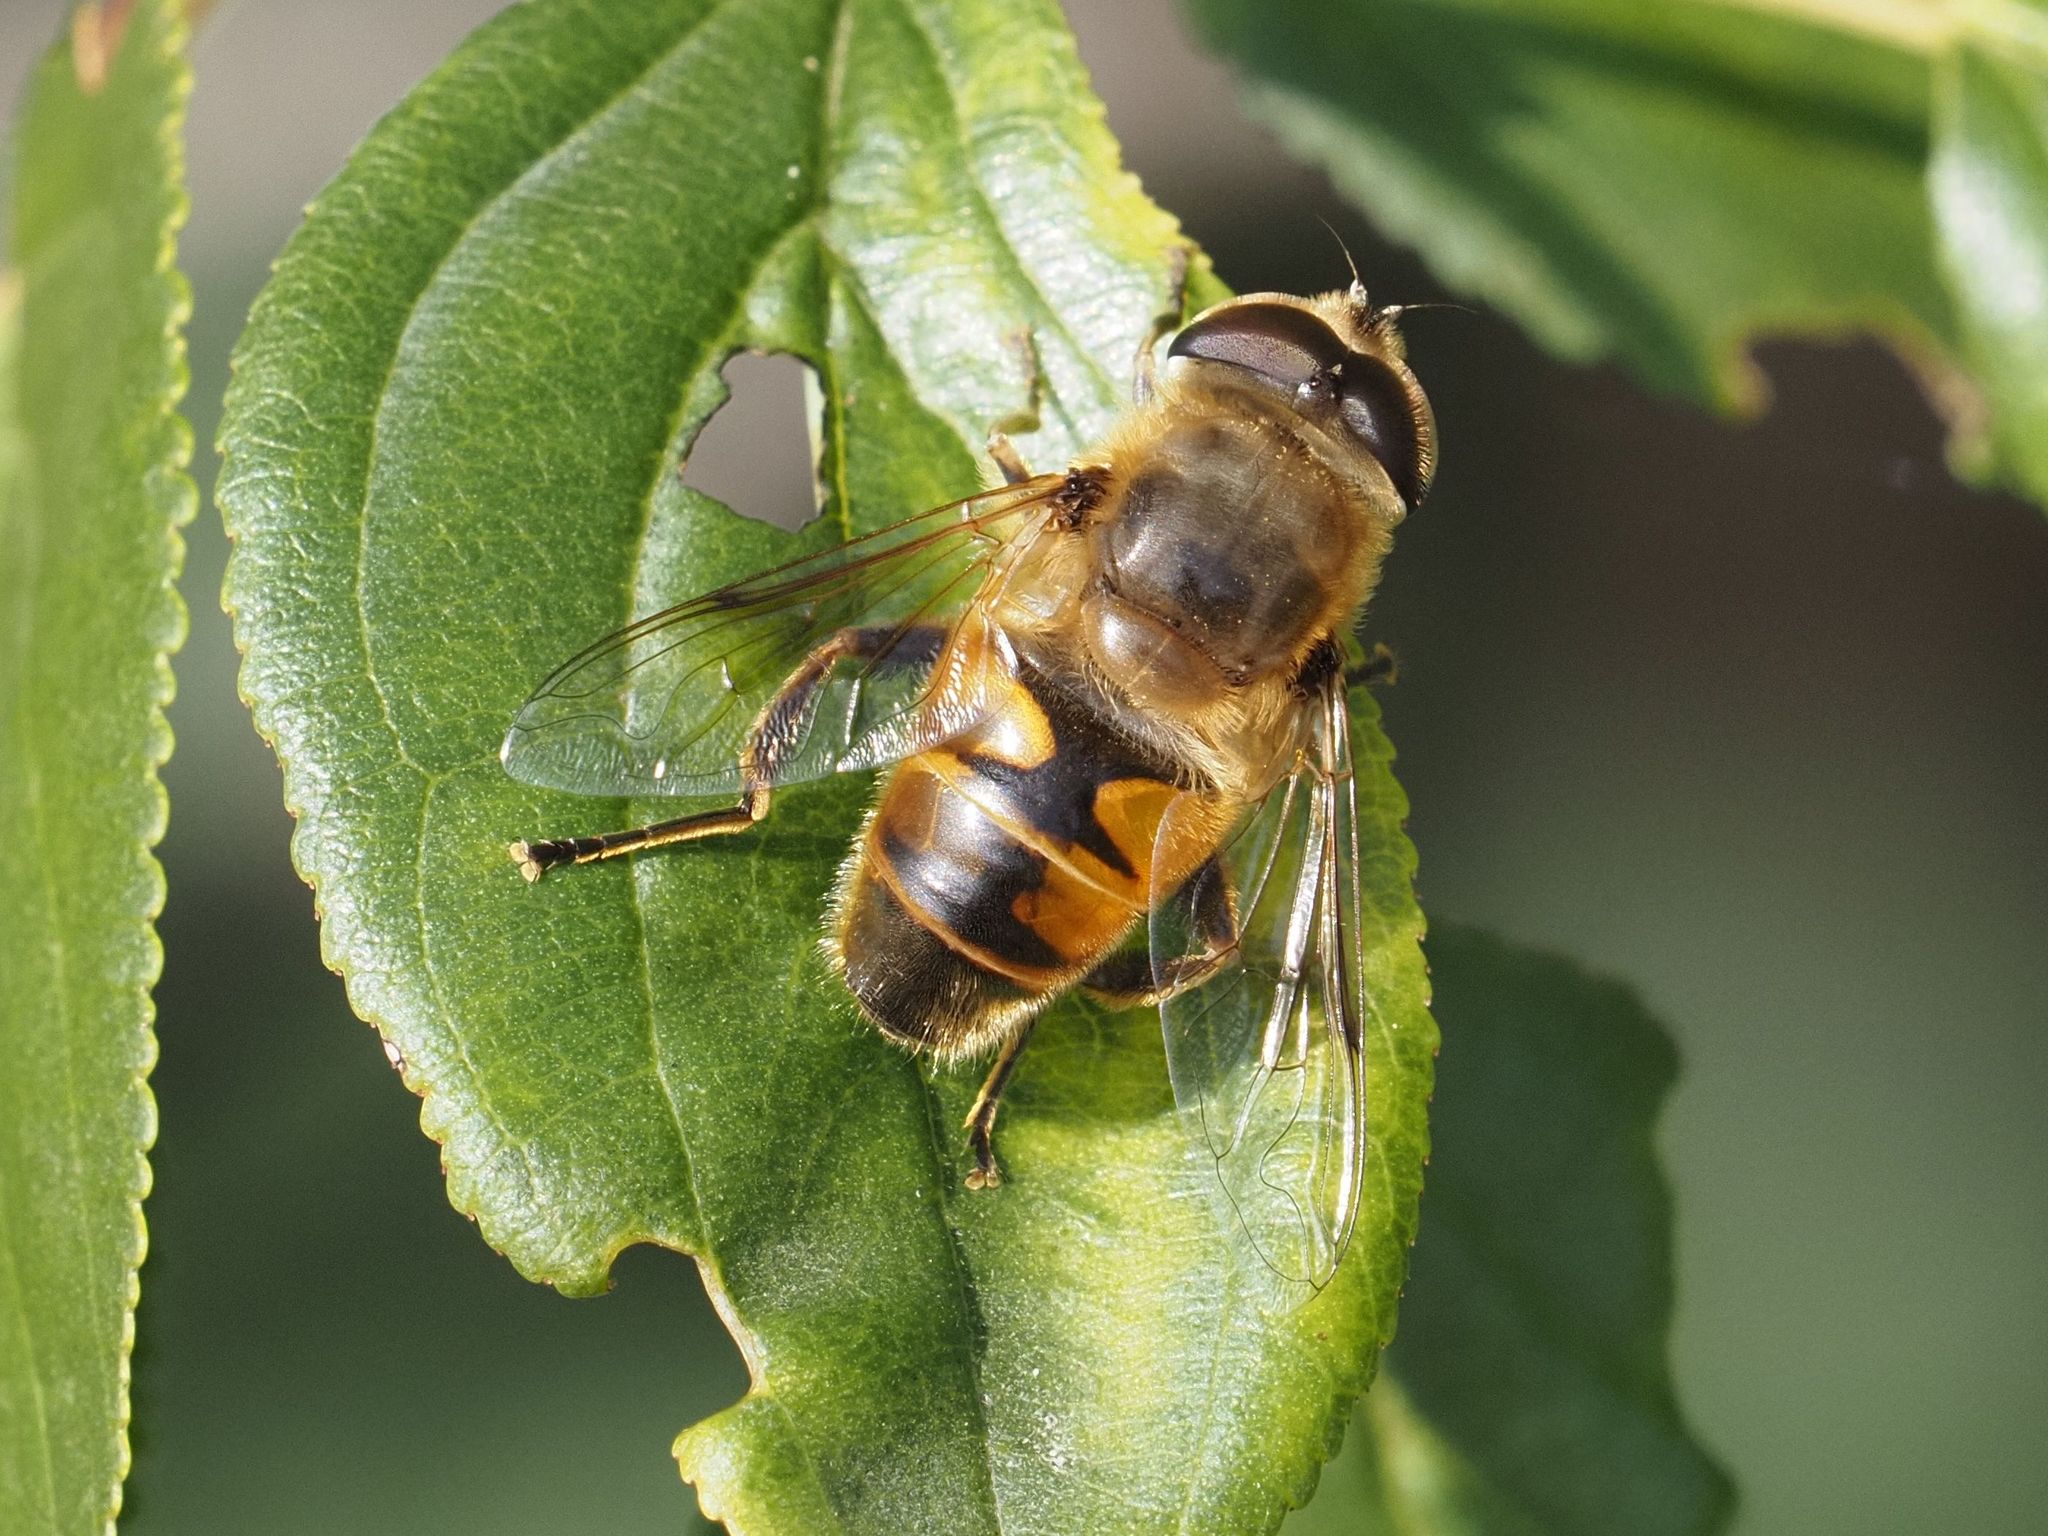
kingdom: Animalia
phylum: Arthropoda
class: Insecta
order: Diptera
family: Syrphidae
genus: Eristalis
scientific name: Eristalis tenax
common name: Drone fly
